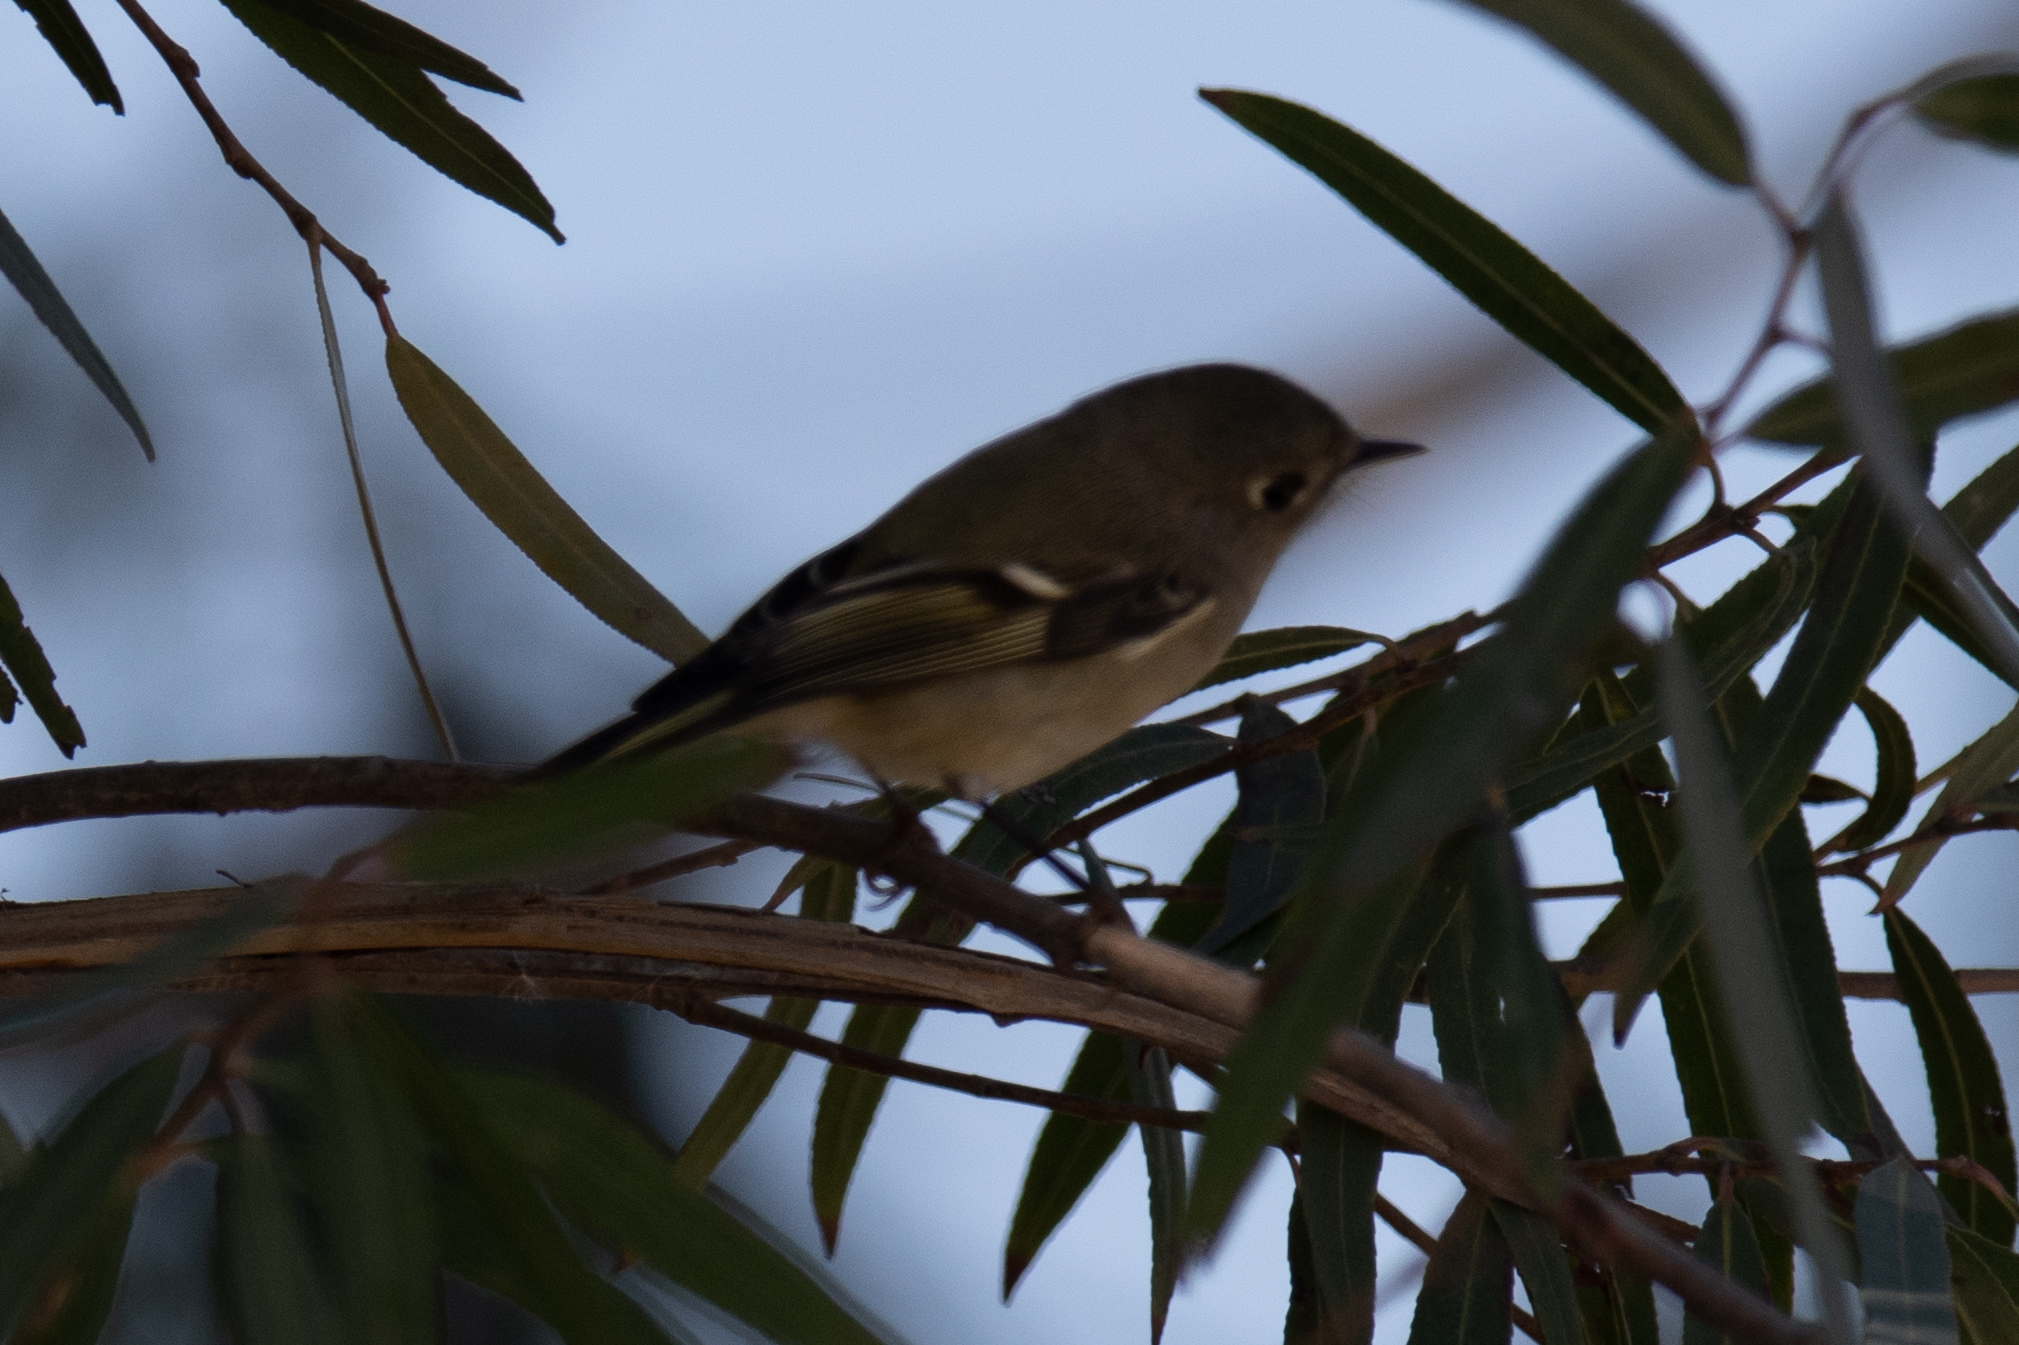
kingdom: Animalia
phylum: Chordata
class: Aves
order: Passeriformes
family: Regulidae
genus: Regulus
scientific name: Regulus calendula
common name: Ruby-crowned kinglet
